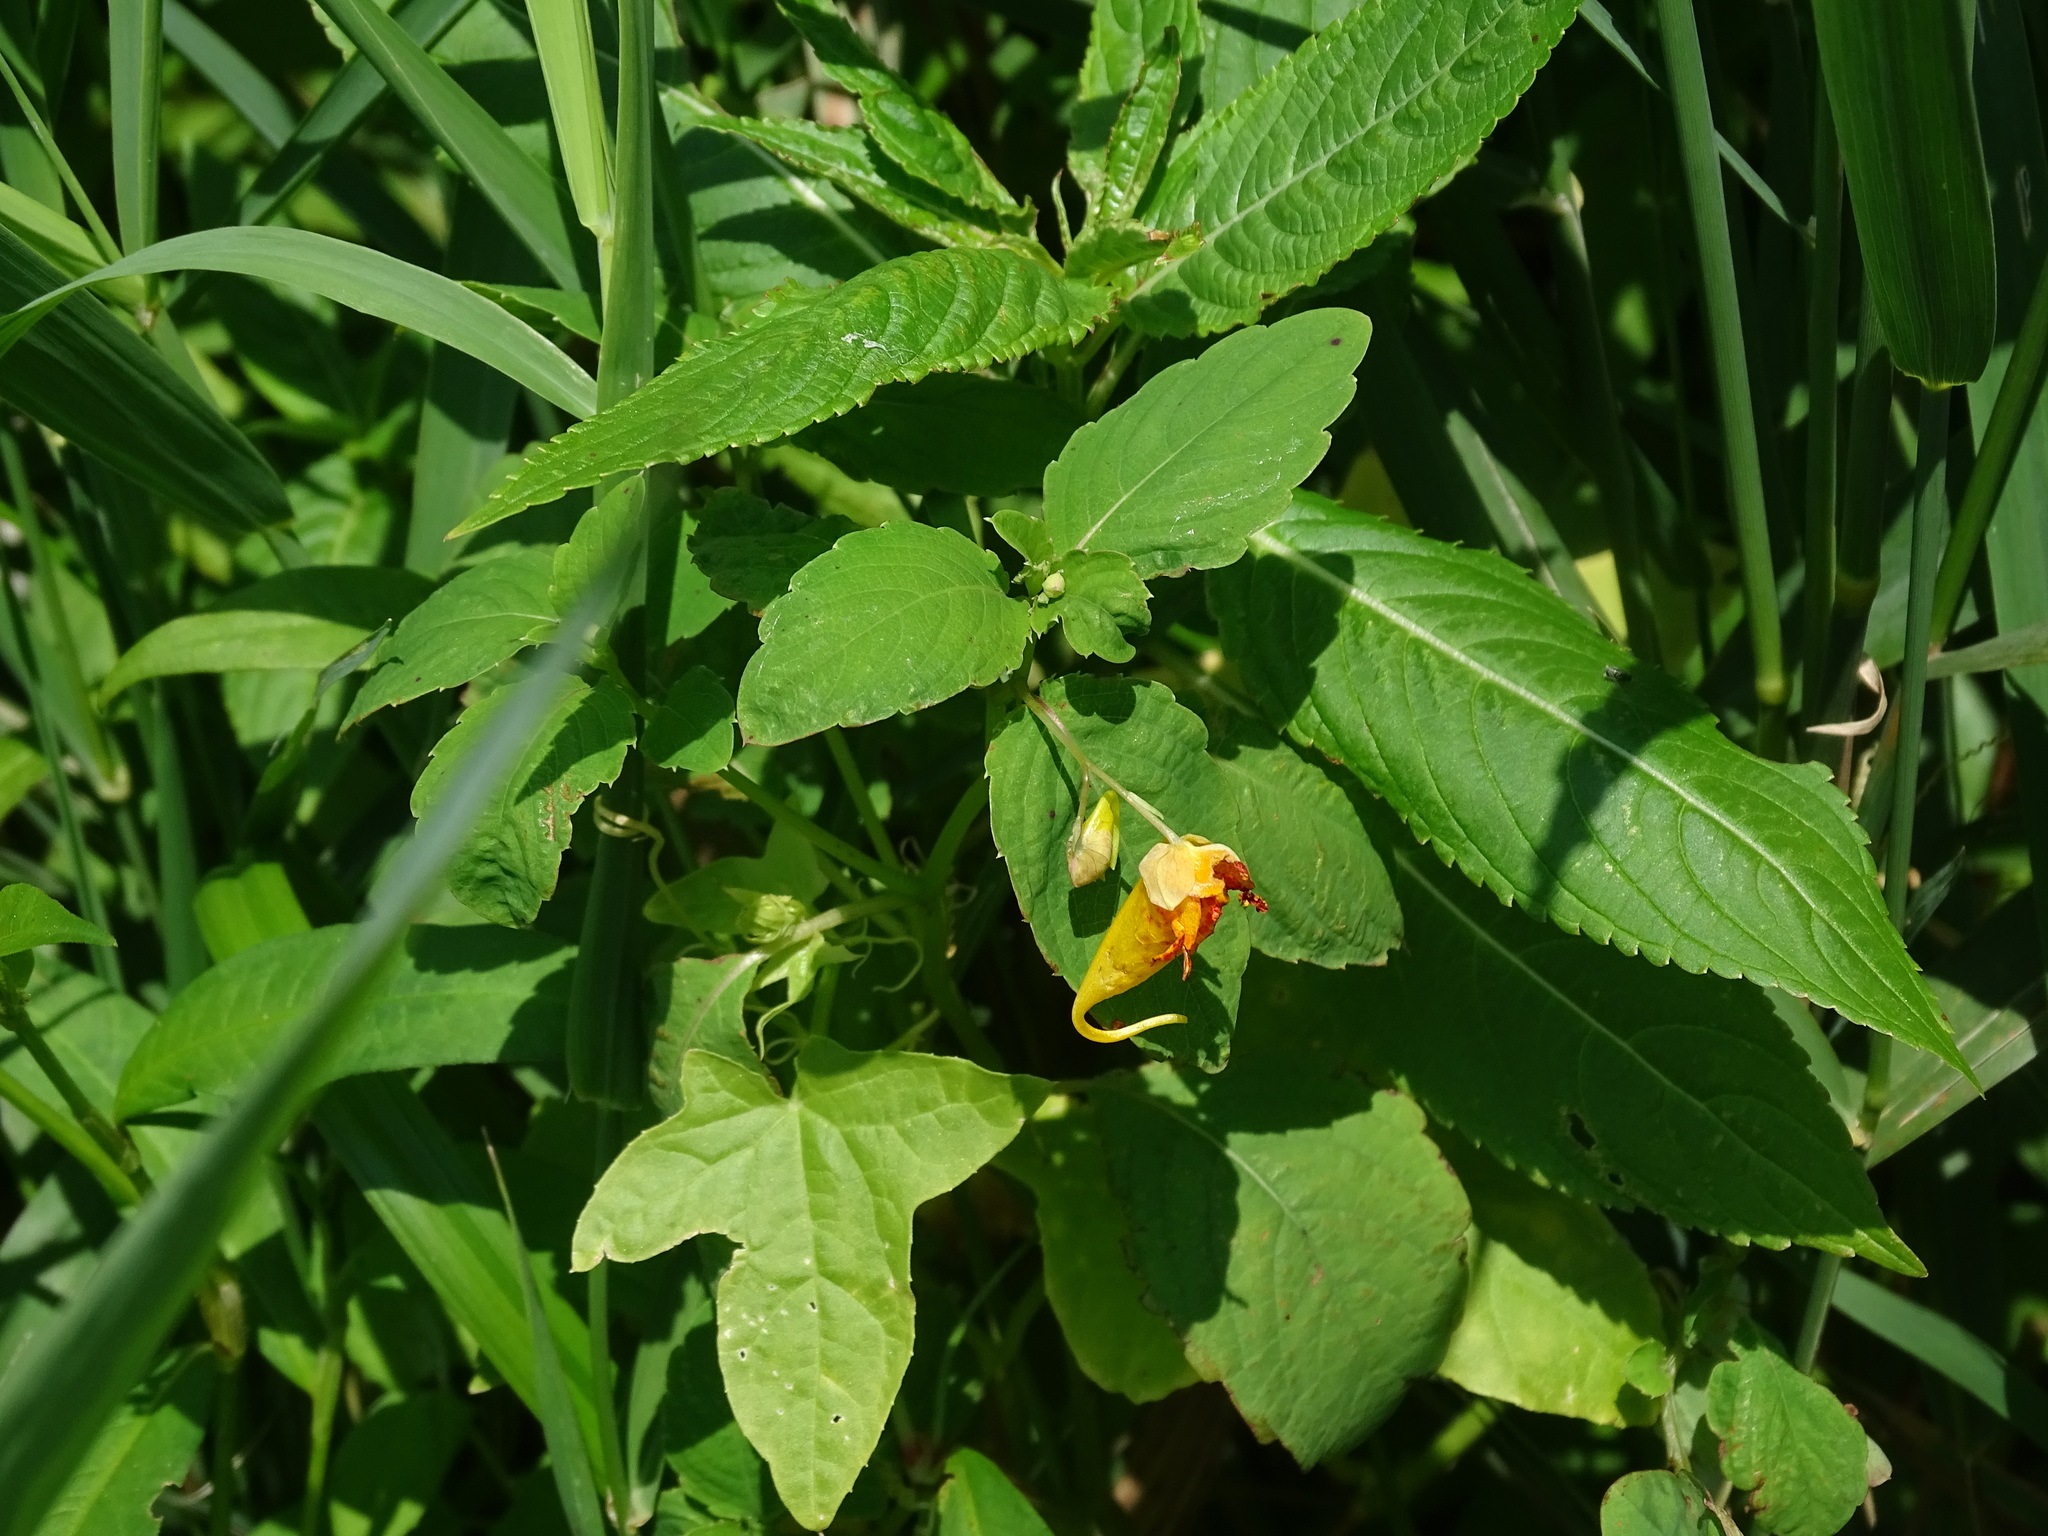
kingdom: Plantae
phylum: Tracheophyta
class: Magnoliopsida
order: Ericales
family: Balsaminaceae
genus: Impatiens
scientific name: Impatiens capensis
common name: Orange balsam
